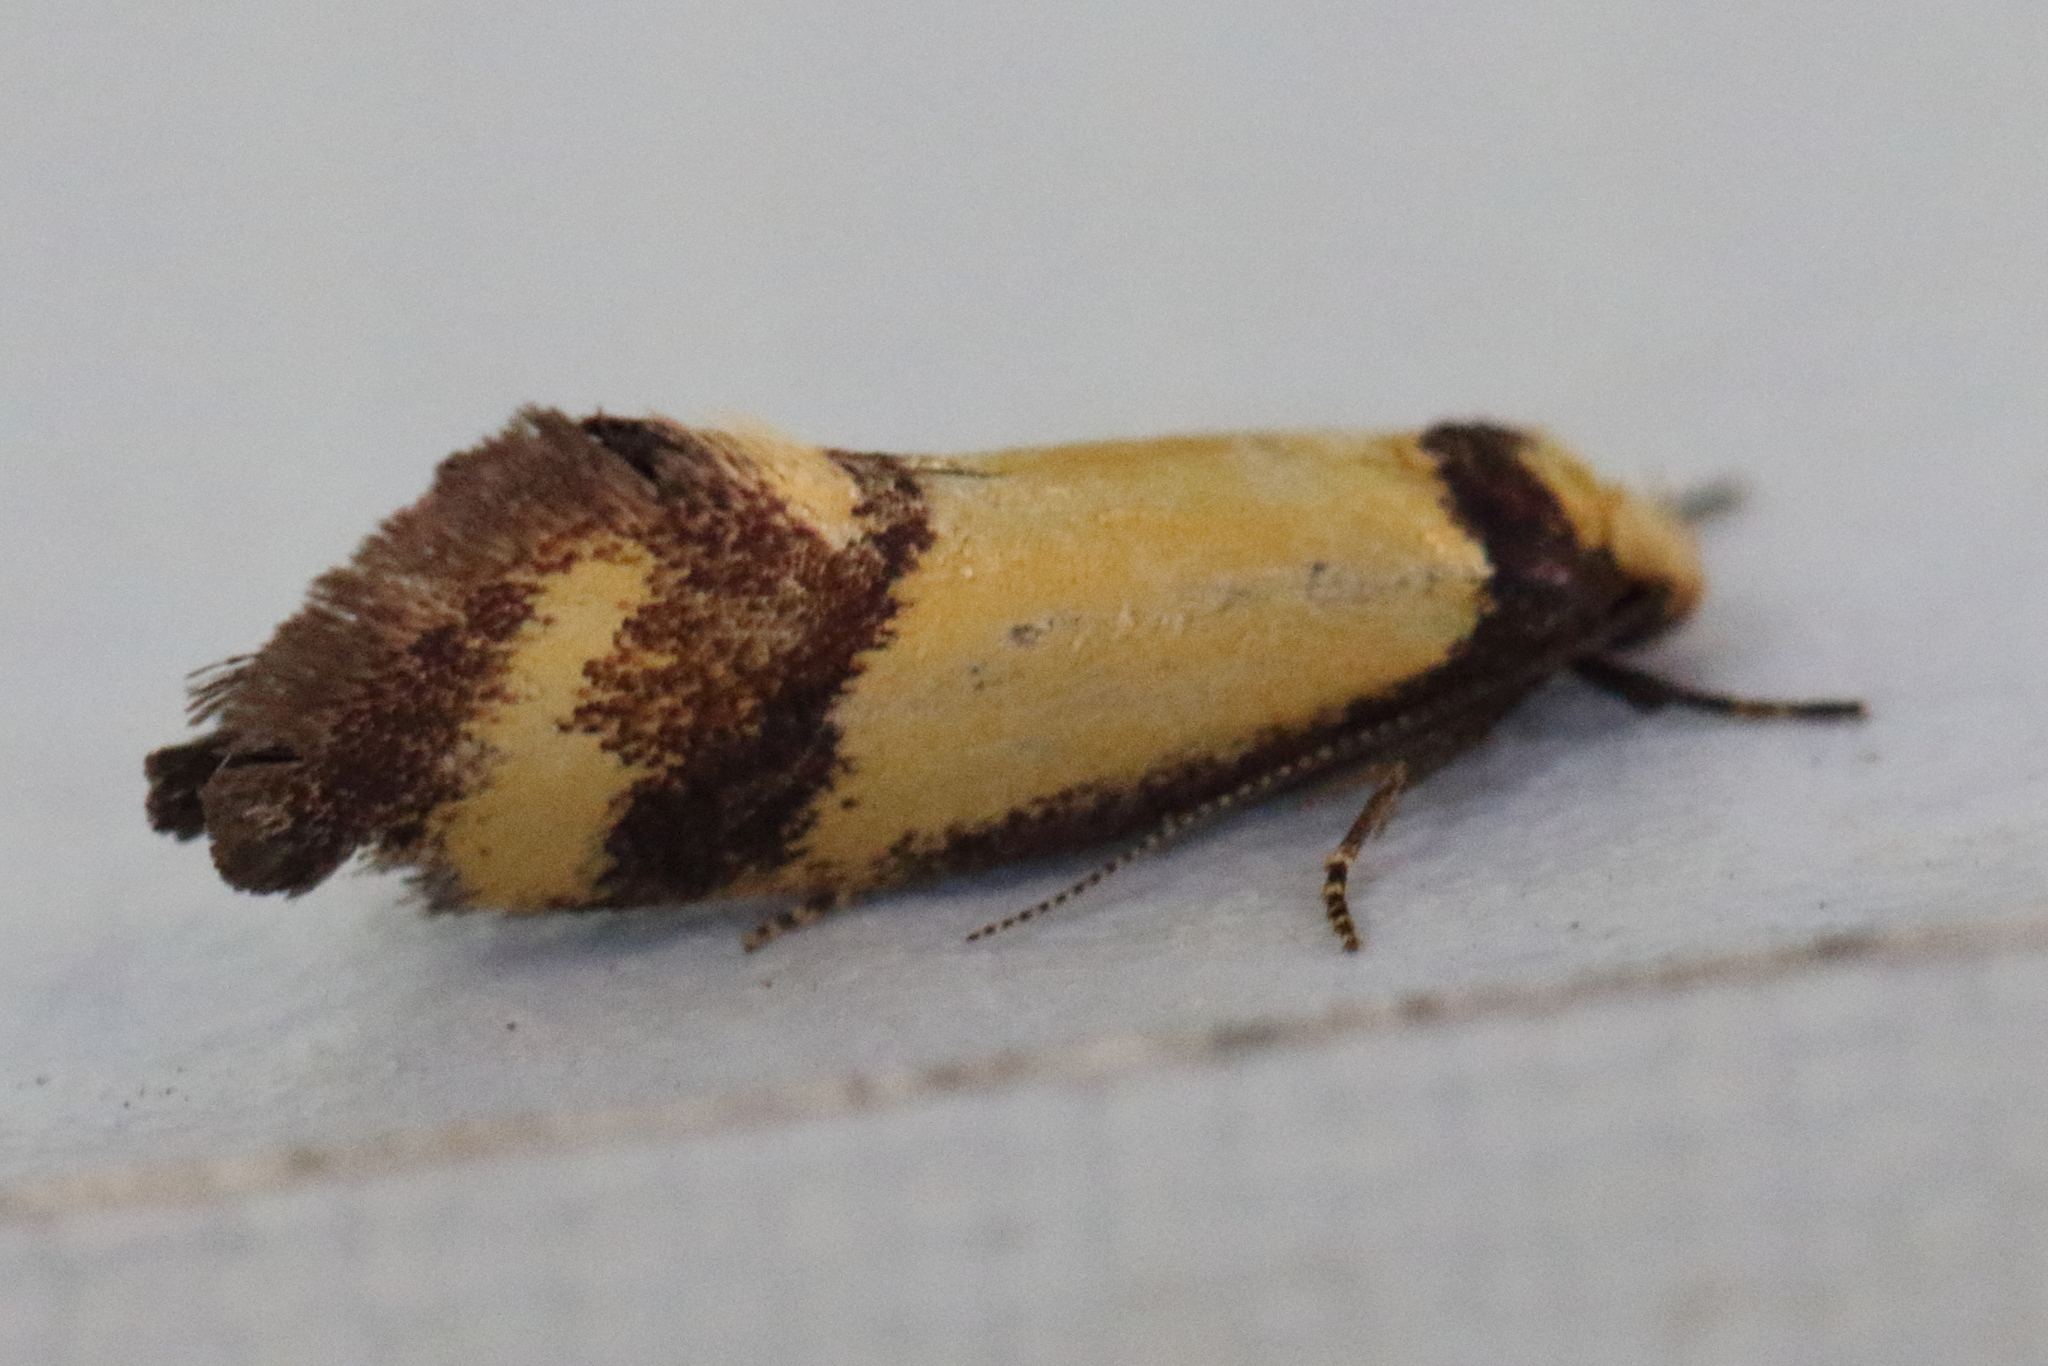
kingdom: Animalia
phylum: Arthropoda
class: Insecta
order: Lepidoptera
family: Oecophoridae
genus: Olbonoma
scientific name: Olbonoma triptycha
